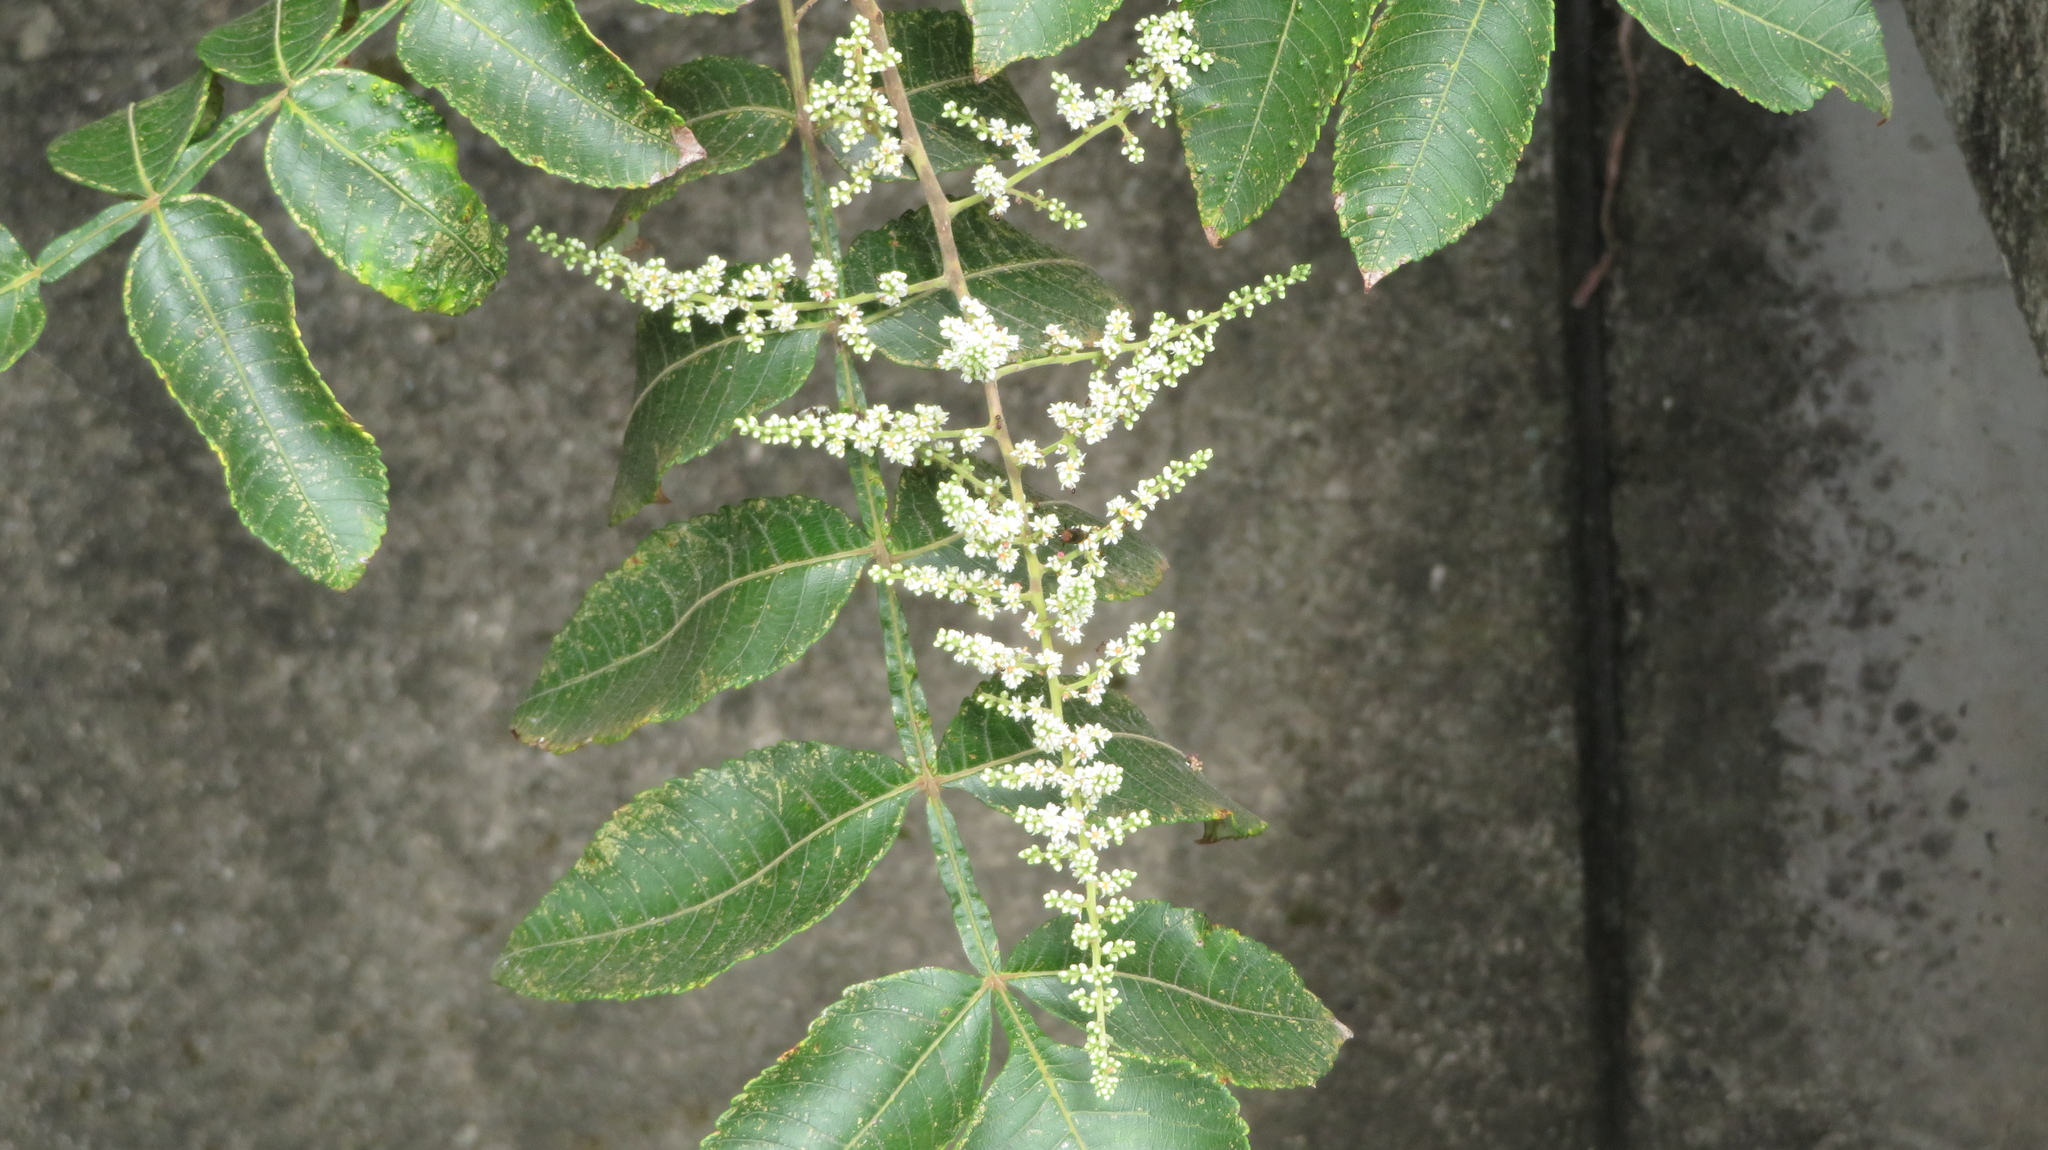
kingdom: Plantae
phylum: Tracheophyta
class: Magnoliopsida
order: Sapindales
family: Anacardiaceae
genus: Rhus
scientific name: Rhus chinensis
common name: Chinese gall
